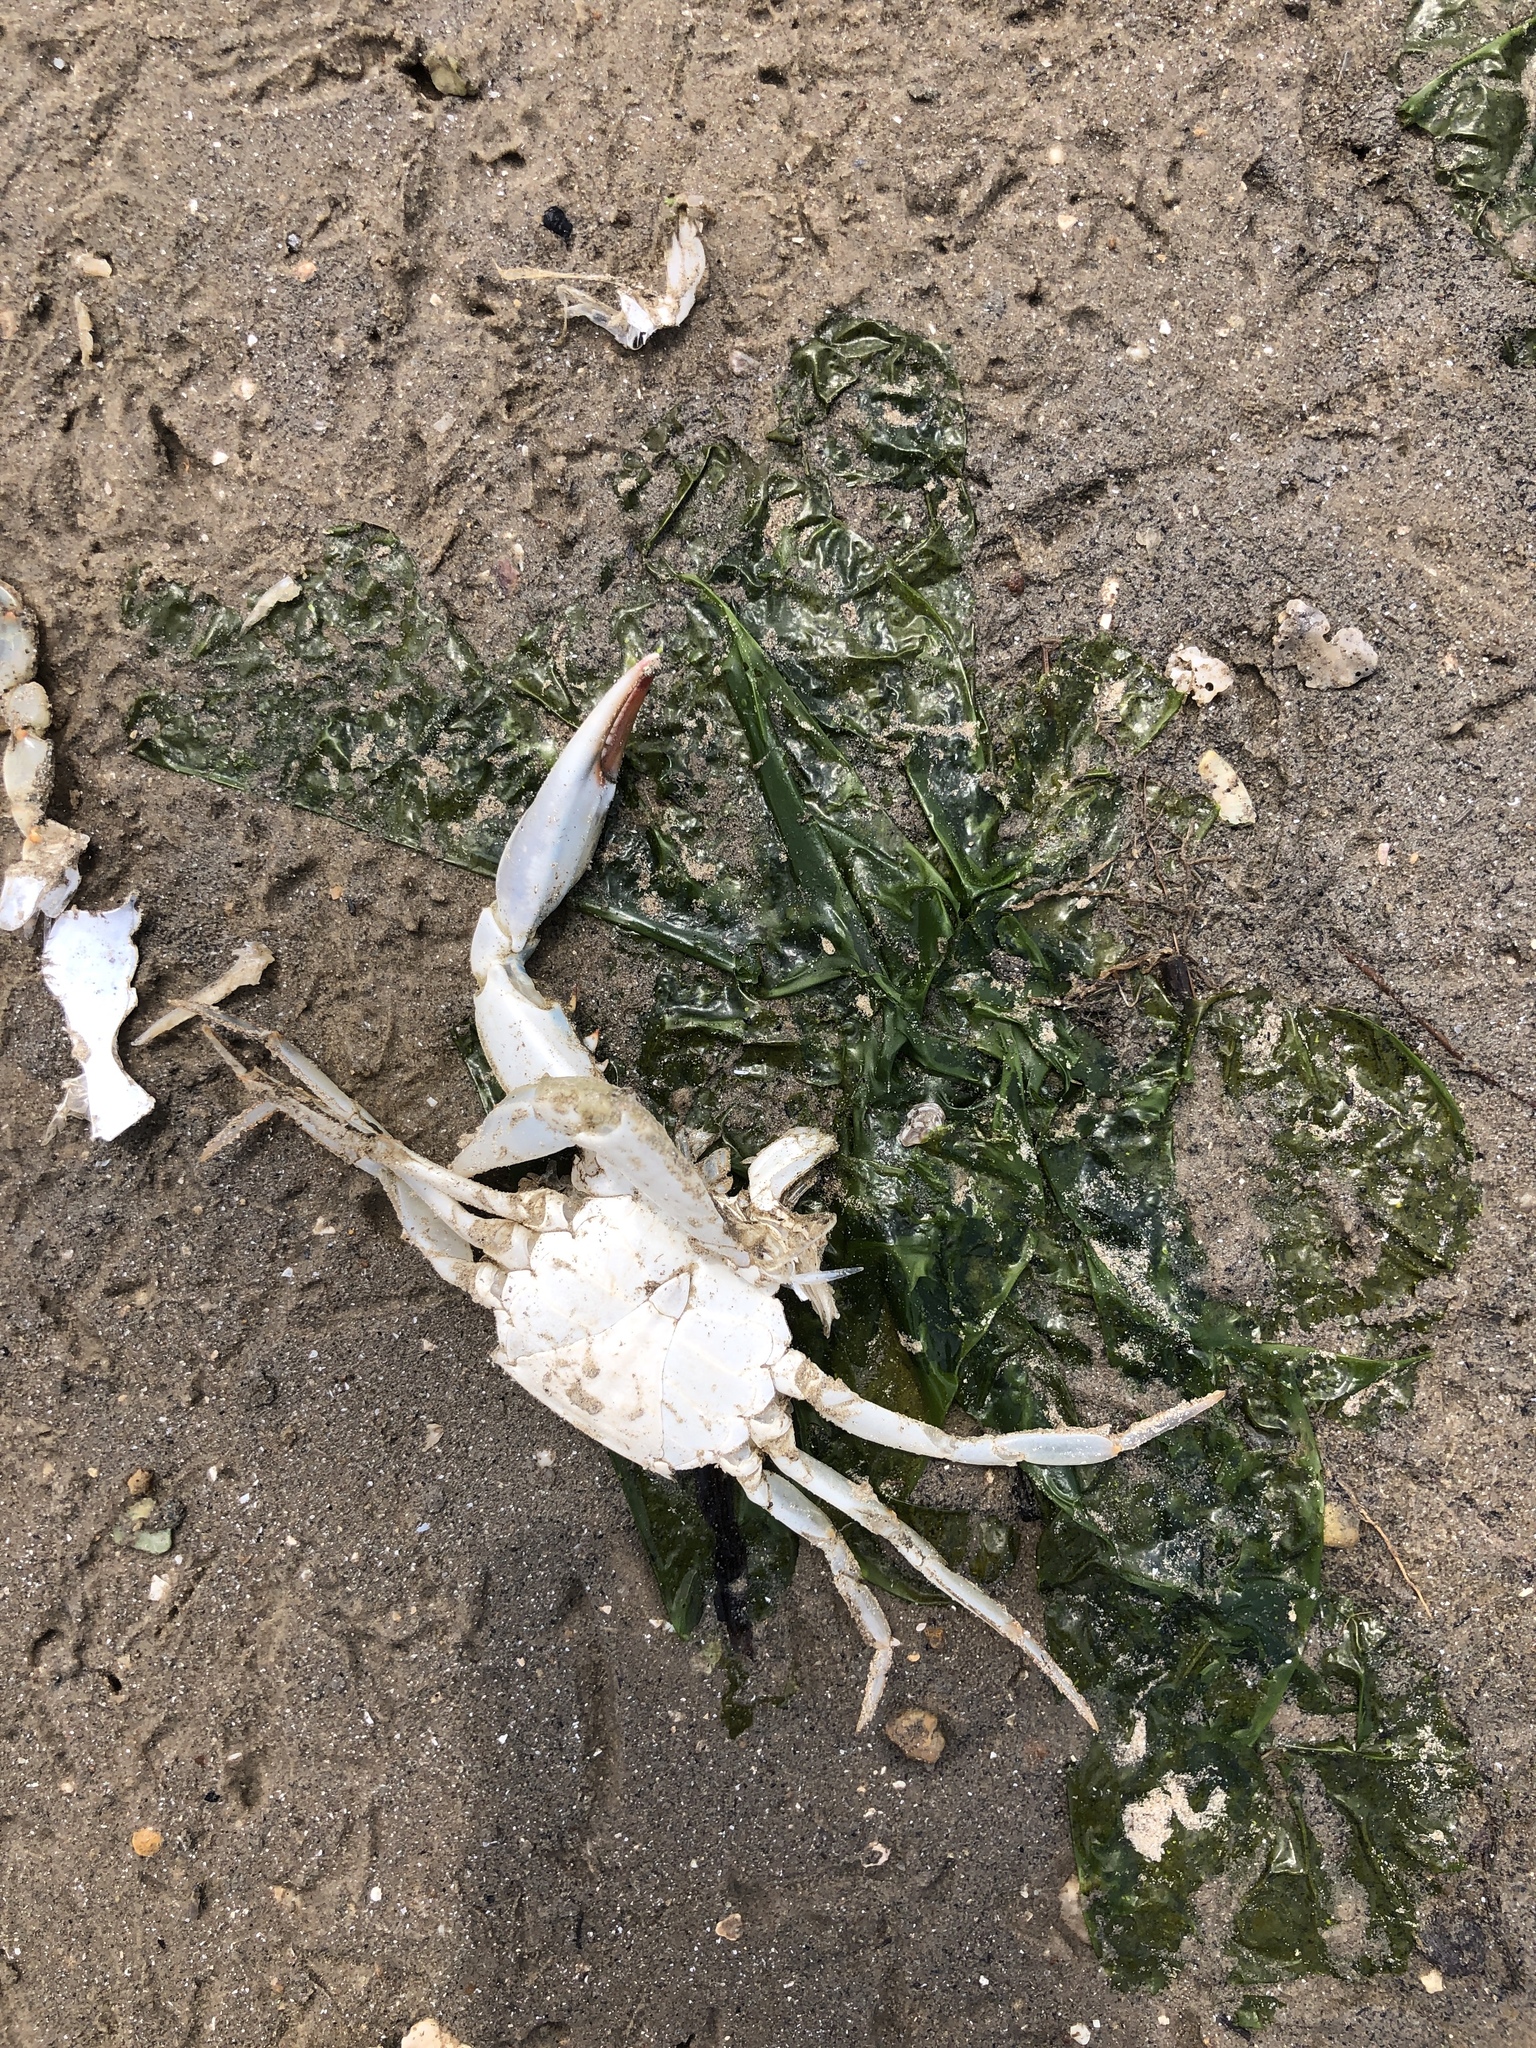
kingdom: Animalia
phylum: Arthropoda
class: Malacostraca
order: Decapoda
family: Portunidae
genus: Callinectes
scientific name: Callinectes sapidus
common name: Blue crab
